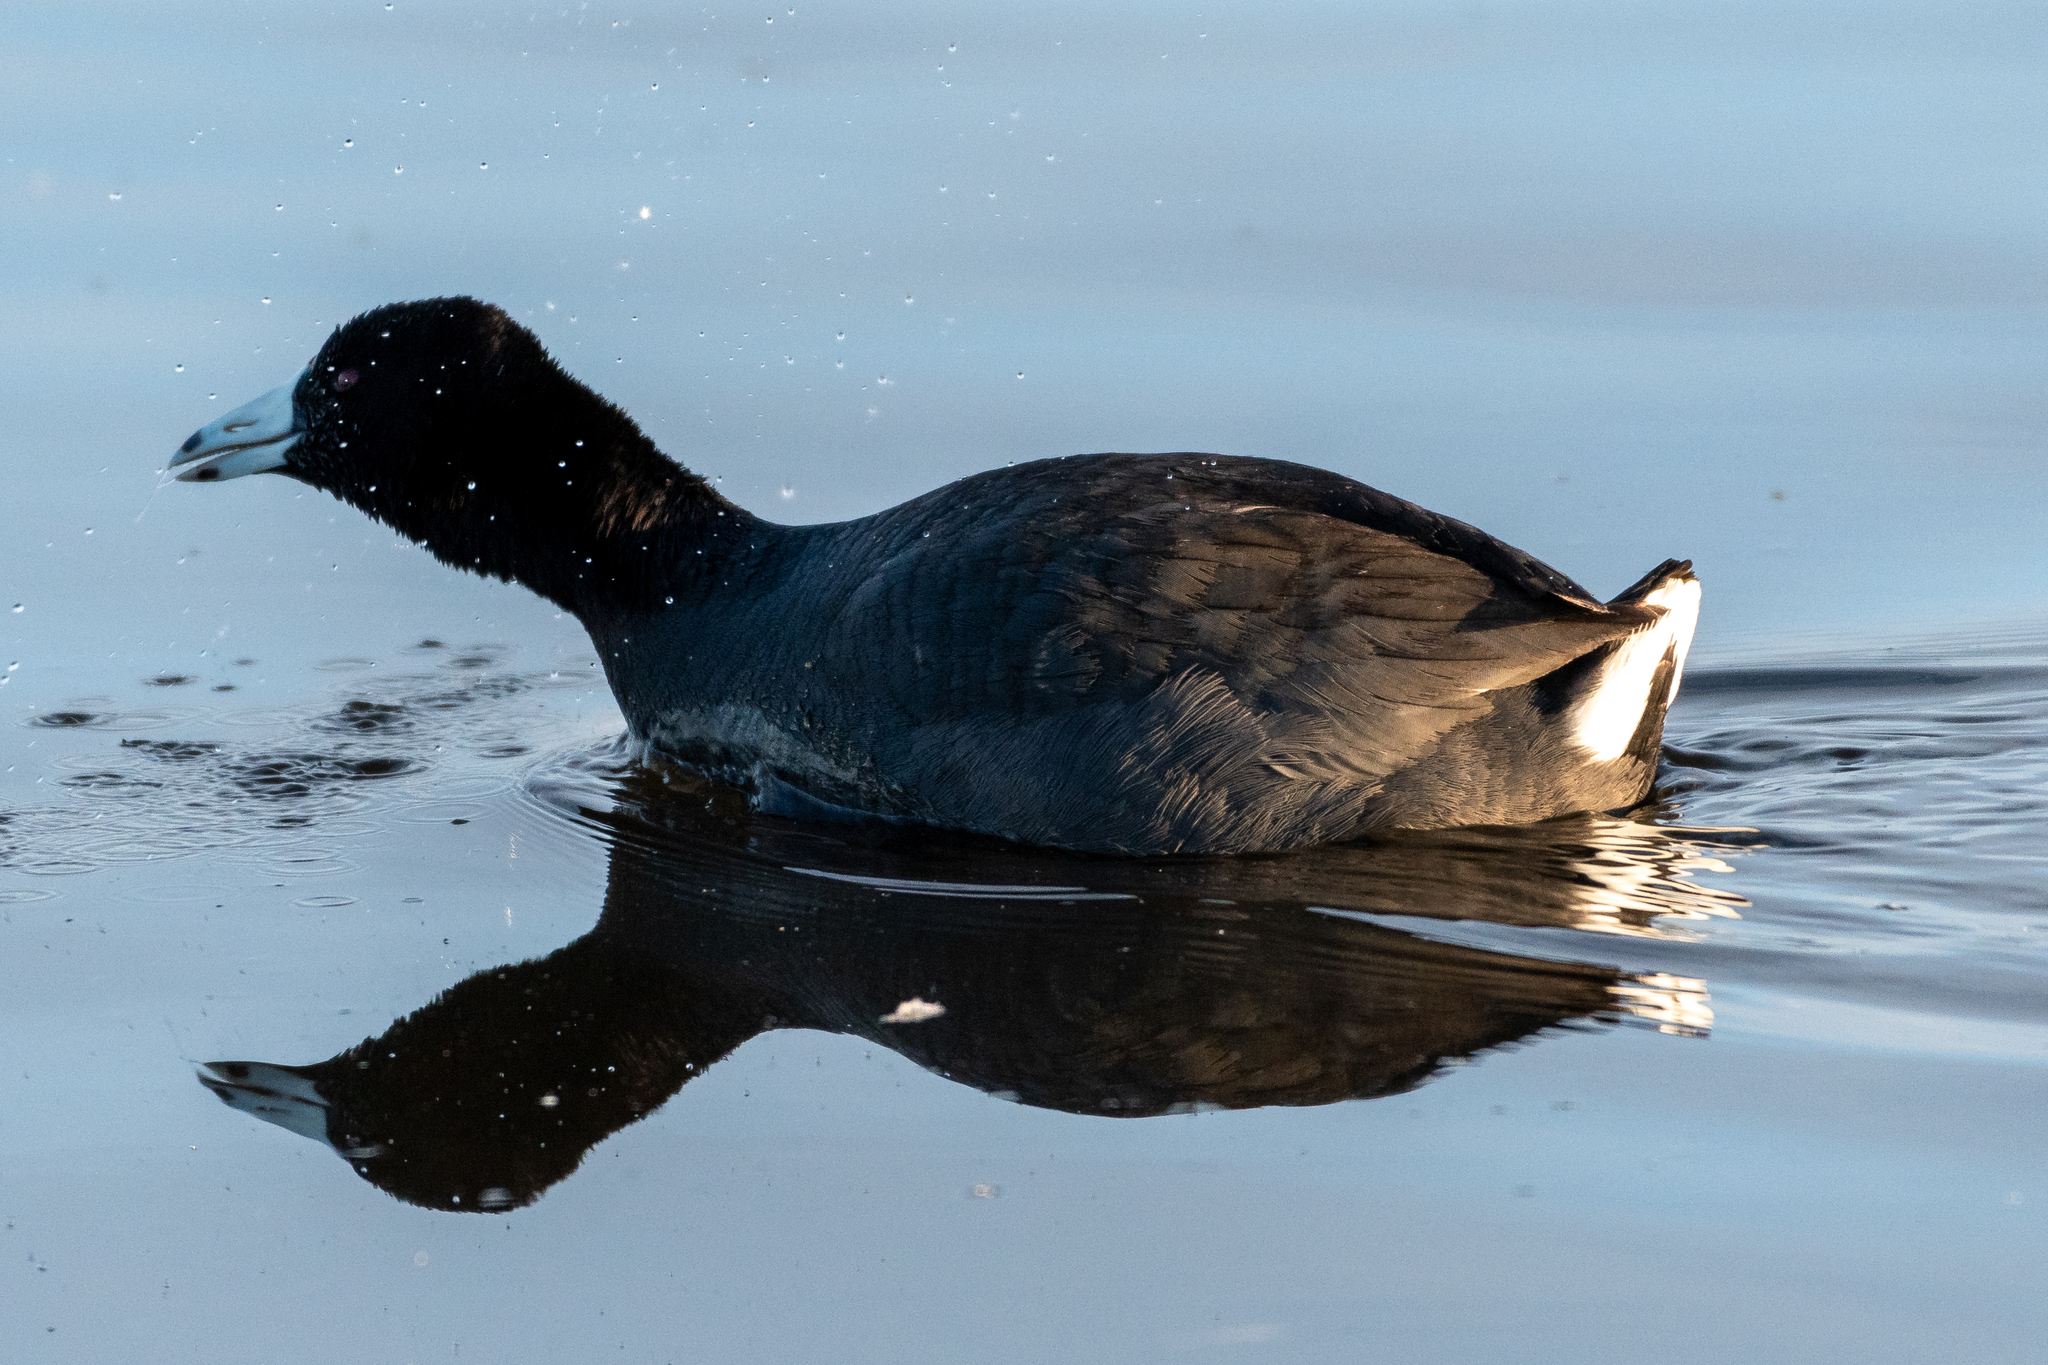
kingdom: Animalia
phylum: Chordata
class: Aves
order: Gruiformes
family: Rallidae
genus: Fulica
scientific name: Fulica americana
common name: American coot
